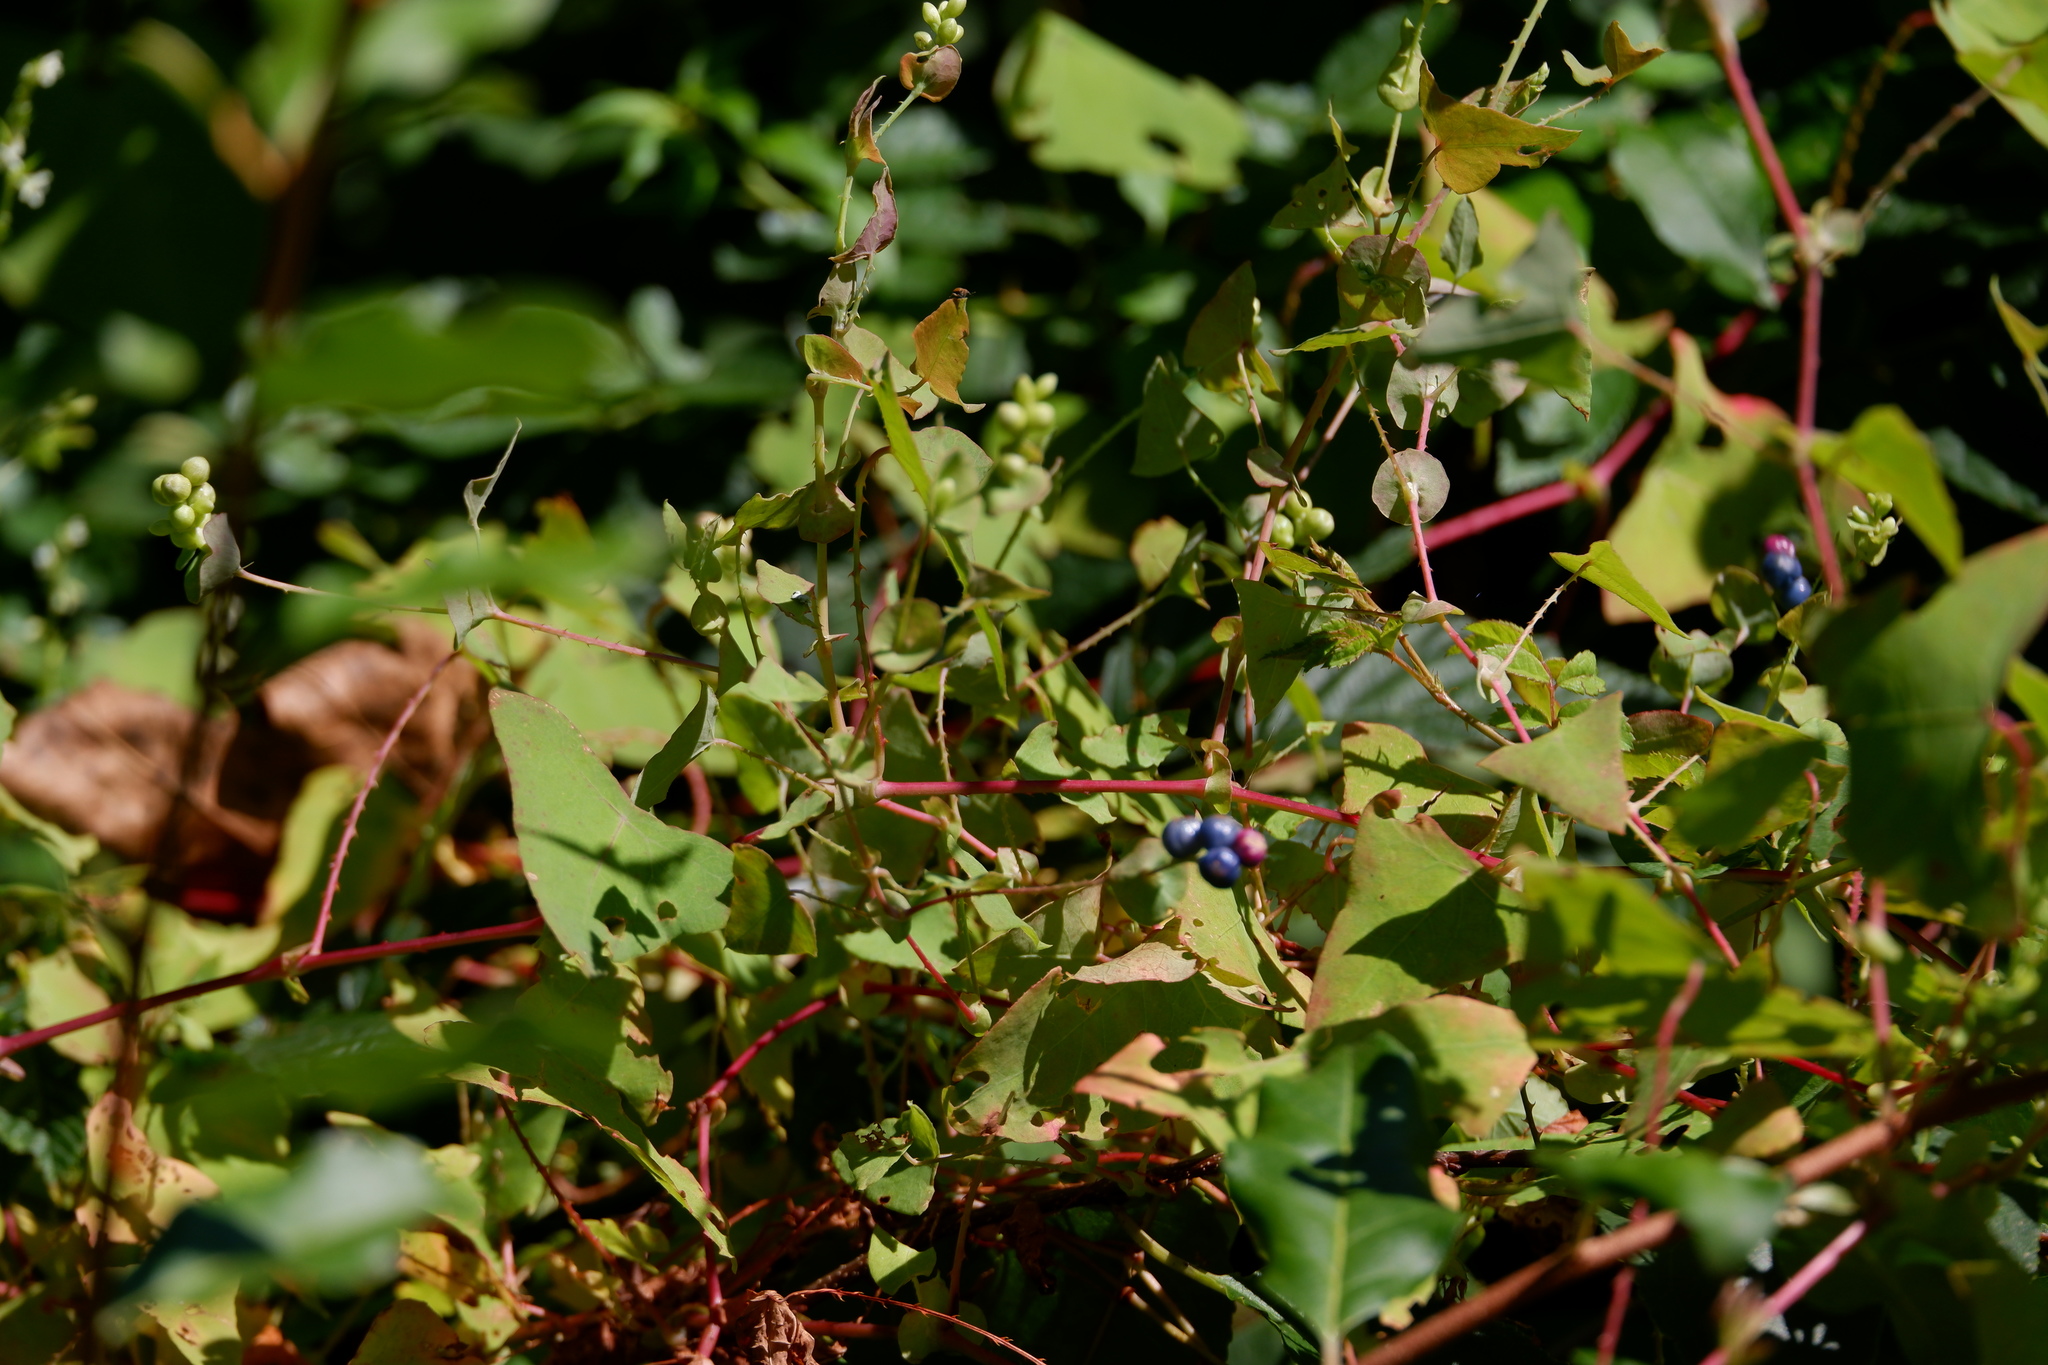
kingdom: Plantae
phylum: Tracheophyta
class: Magnoliopsida
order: Caryophyllales
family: Polygonaceae
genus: Persicaria
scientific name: Persicaria perfoliata
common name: Asiatic tearthumb
